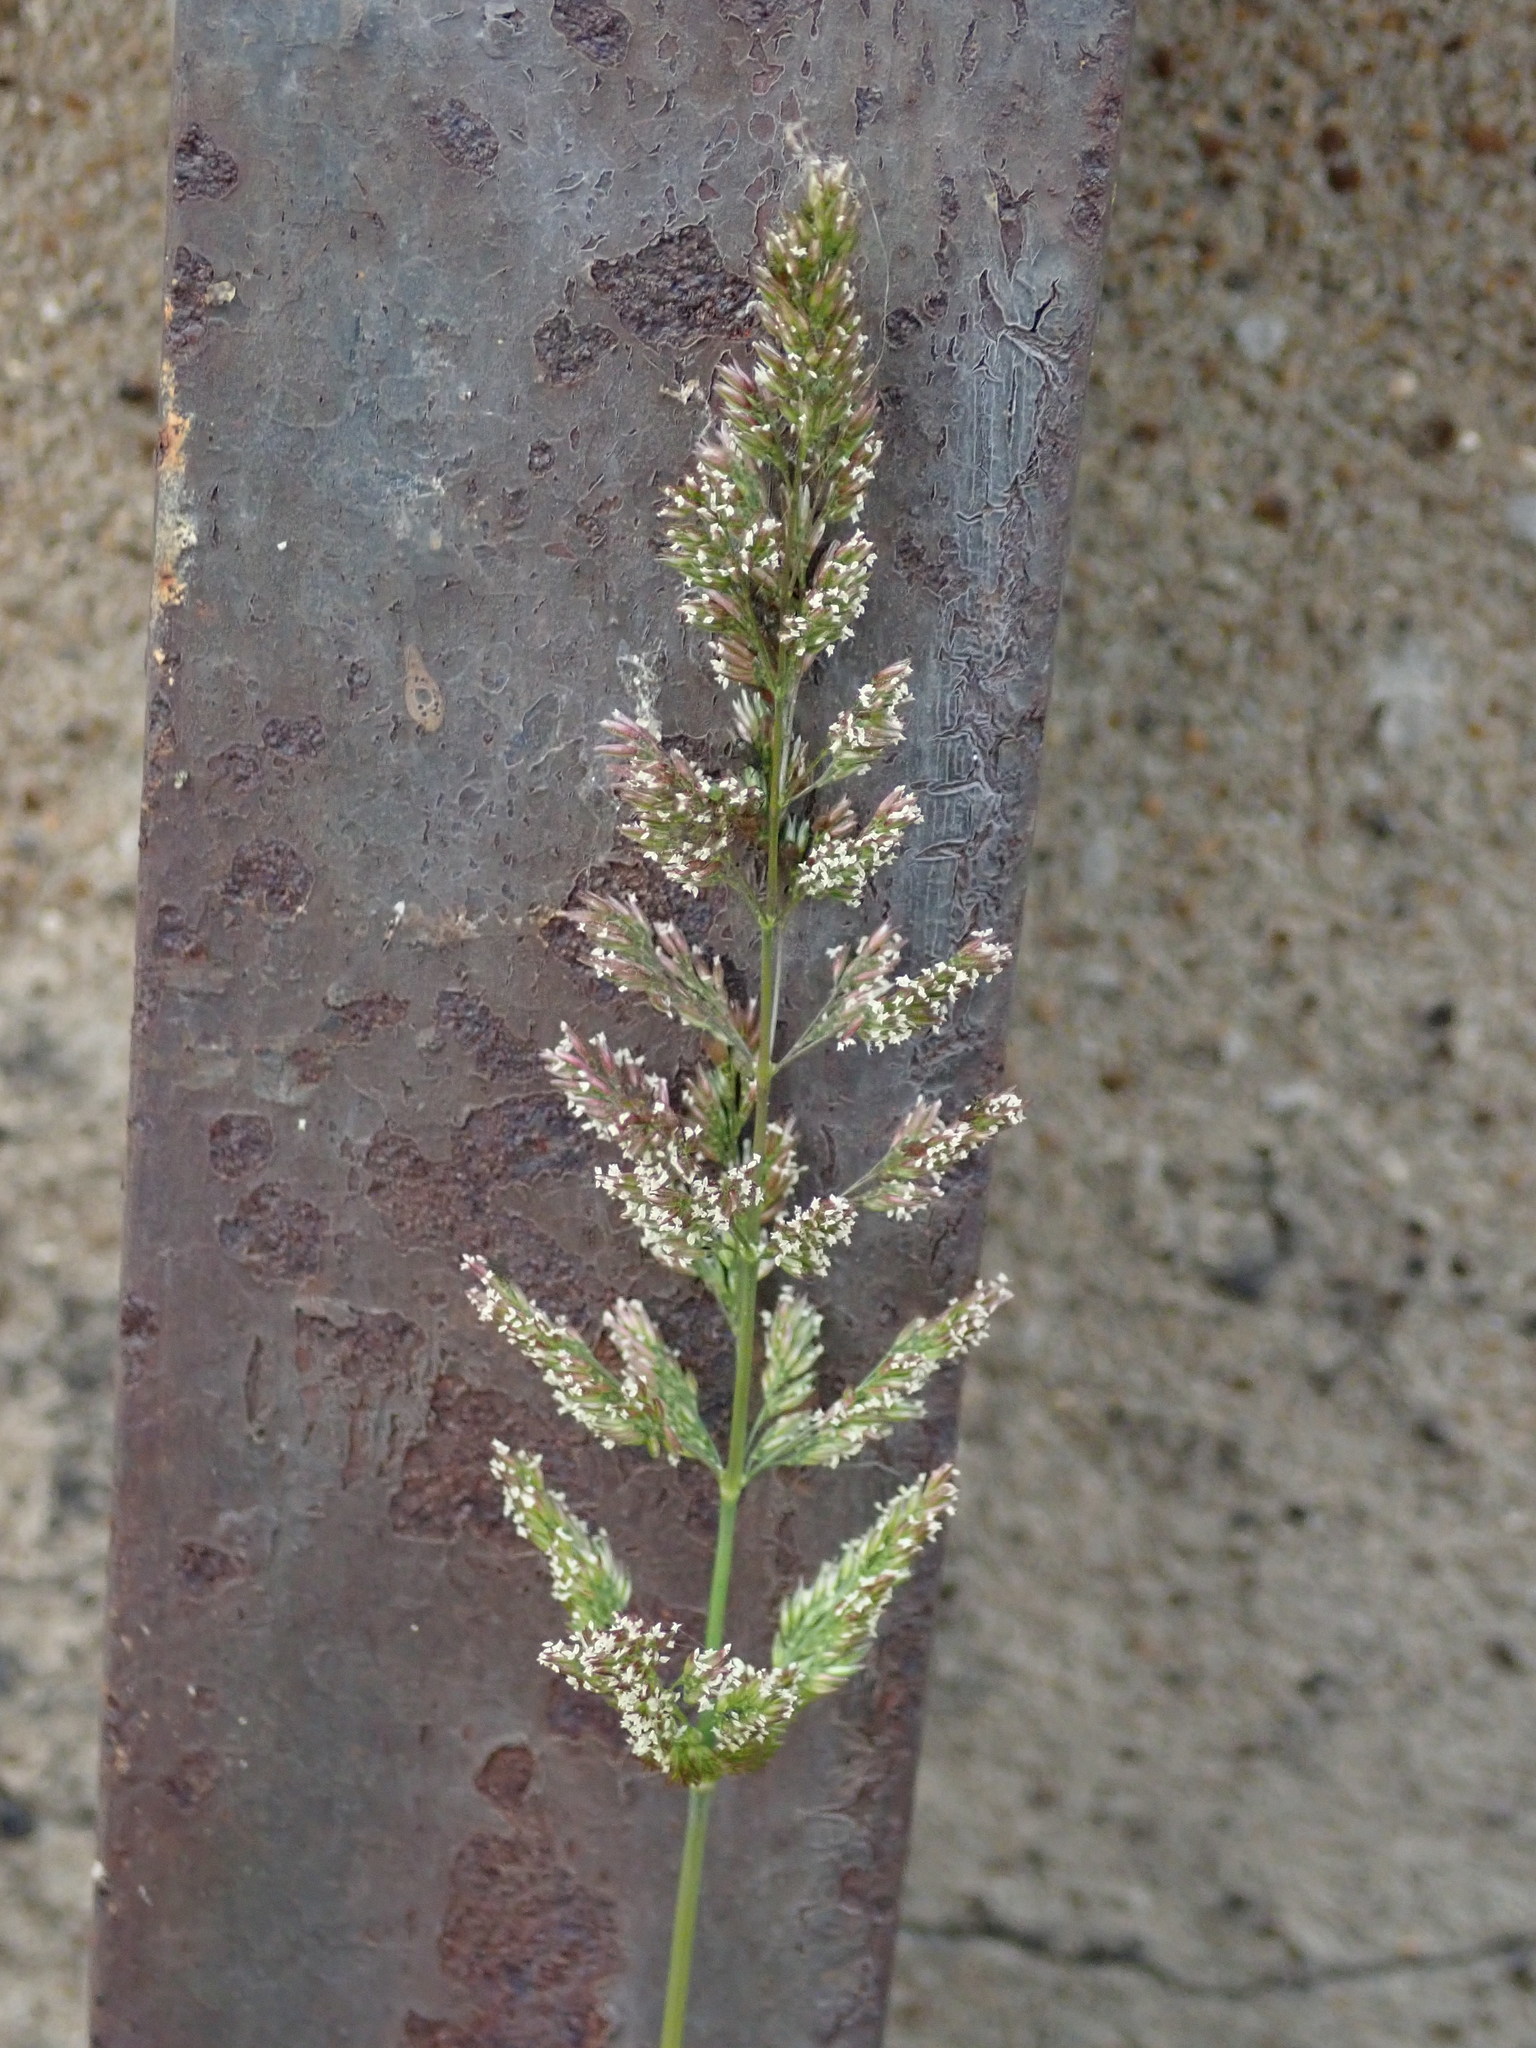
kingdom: Plantae
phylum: Tracheophyta
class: Liliopsida
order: Poales
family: Poaceae
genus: Polypogon
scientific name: Polypogon viridis
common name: Water bent
